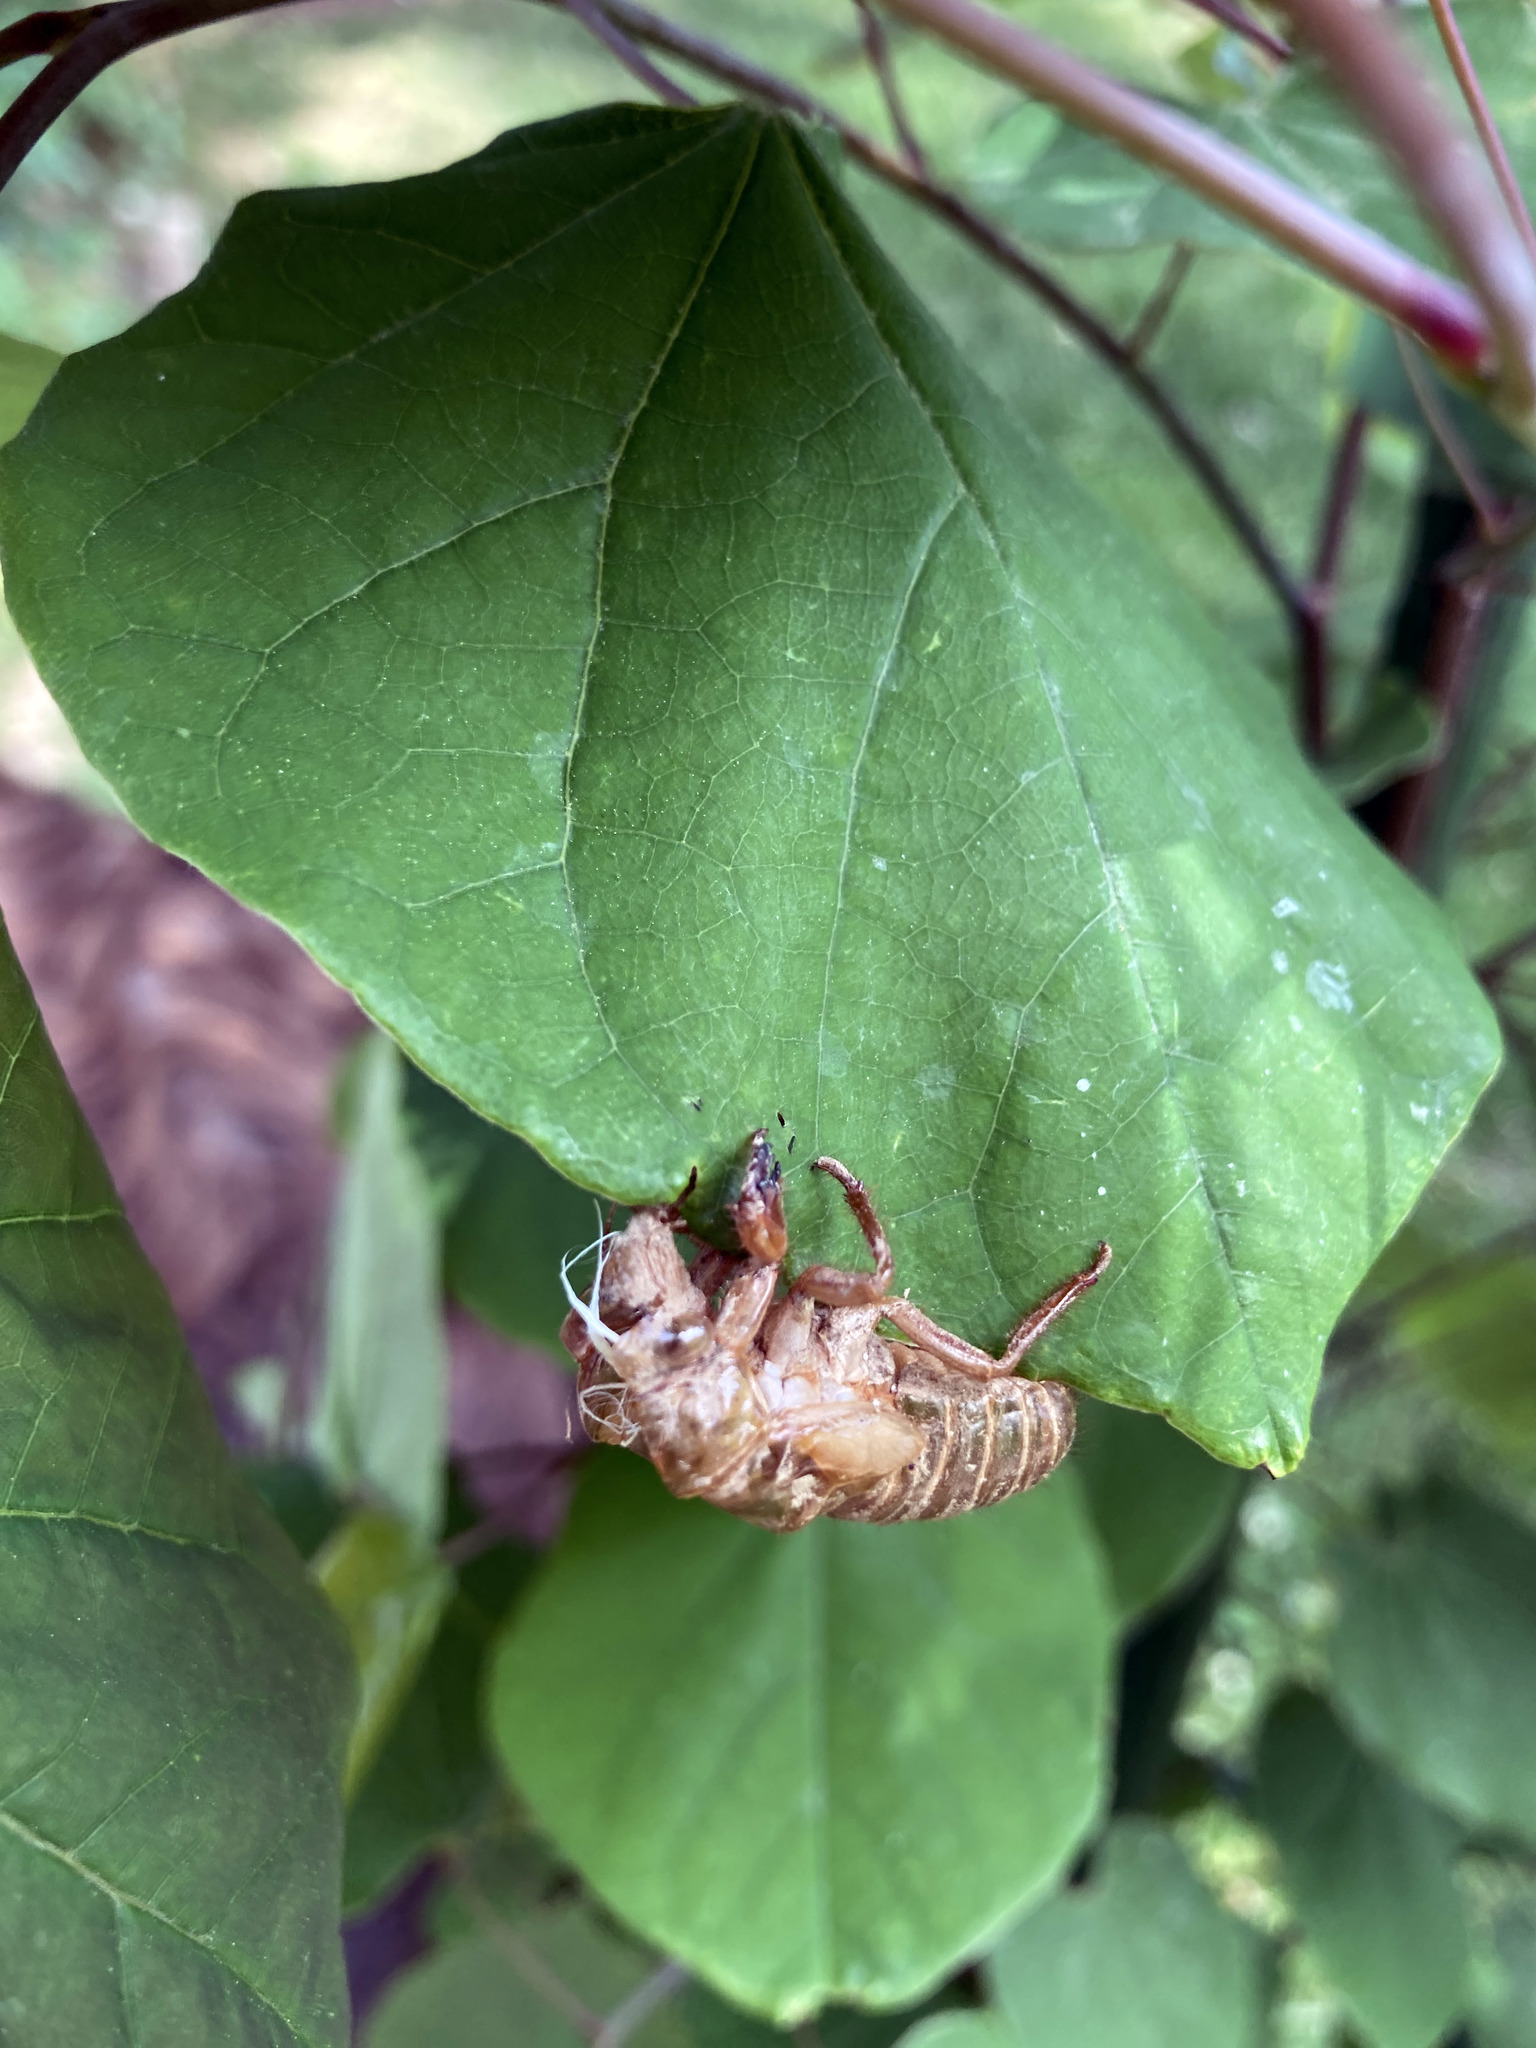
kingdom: Animalia
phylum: Arthropoda
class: Insecta
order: Hemiptera
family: Cicadidae
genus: Magicicada
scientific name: Magicicada septendecim
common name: Periodical cicada
